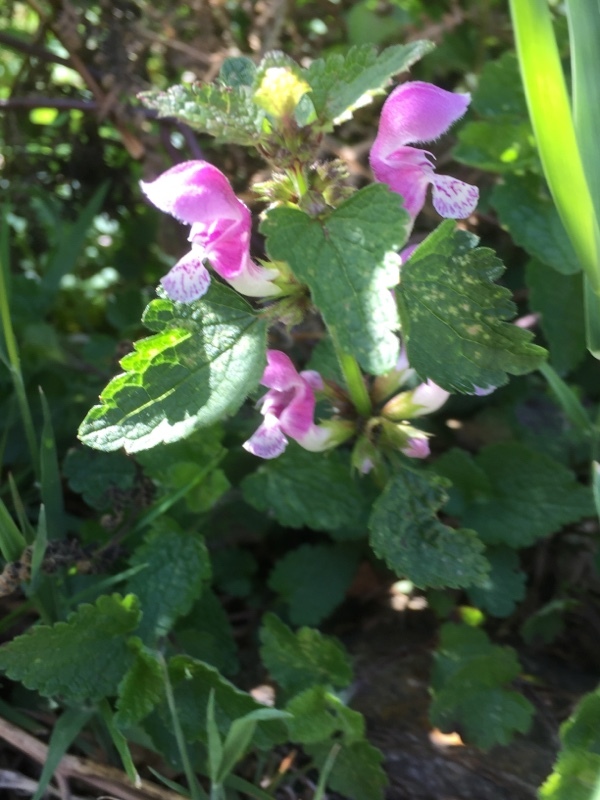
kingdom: Plantae
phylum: Tracheophyta
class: Magnoliopsida
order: Lamiales
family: Lamiaceae
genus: Lamium
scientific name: Lamium maculatum
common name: Spotted dead-nettle
